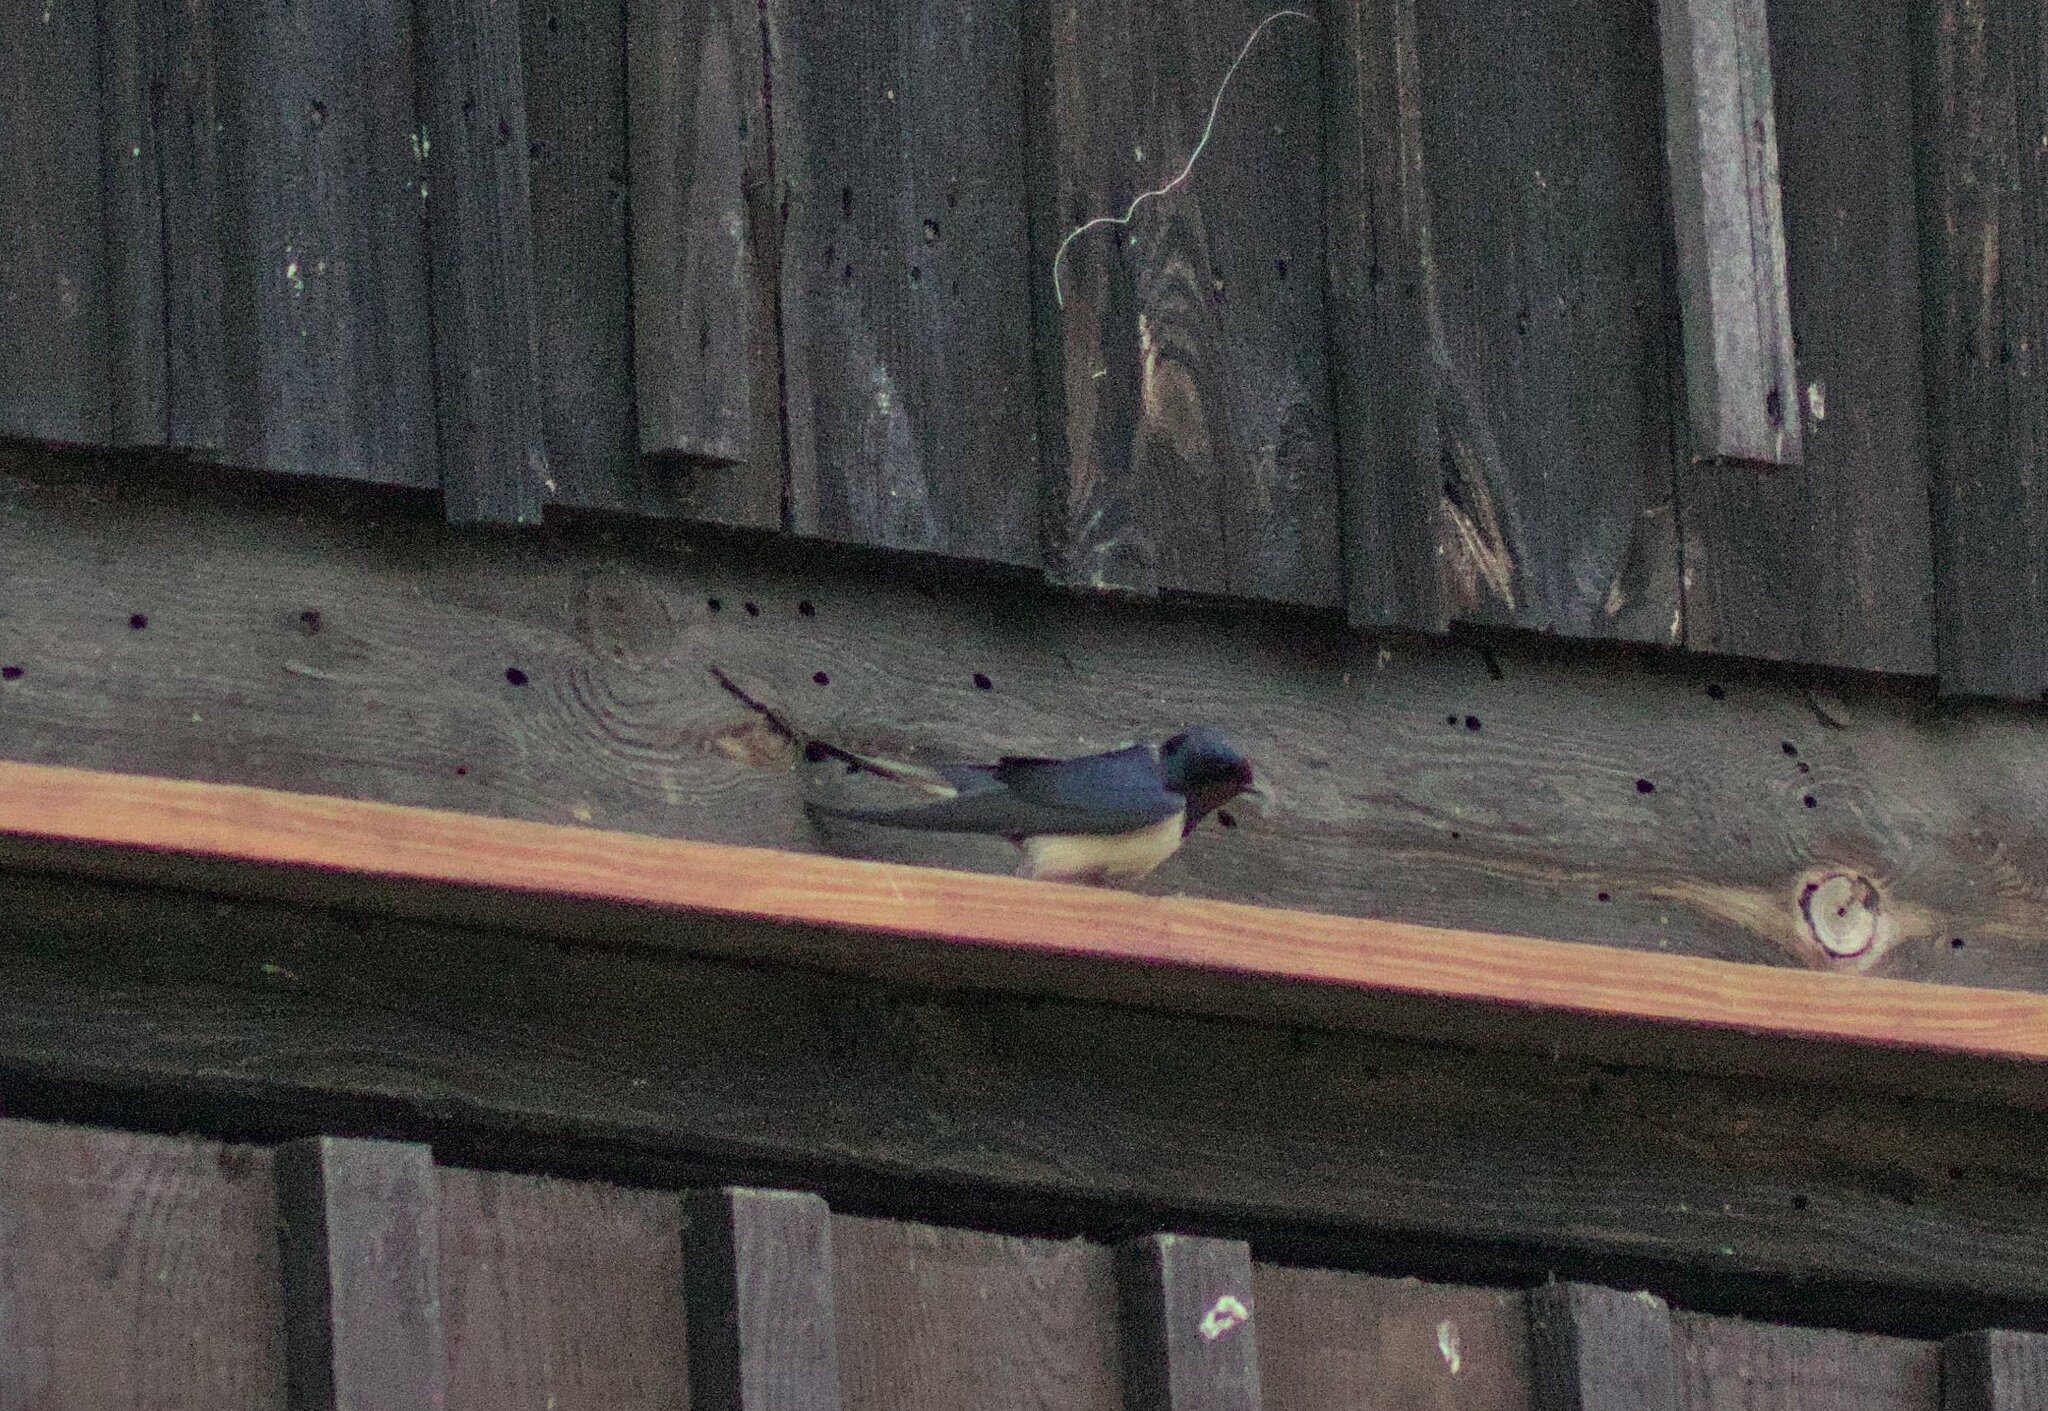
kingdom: Animalia
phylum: Chordata
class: Aves
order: Passeriformes
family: Hirundinidae
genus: Hirundo
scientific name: Hirundo rustica
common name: Barn swallow
